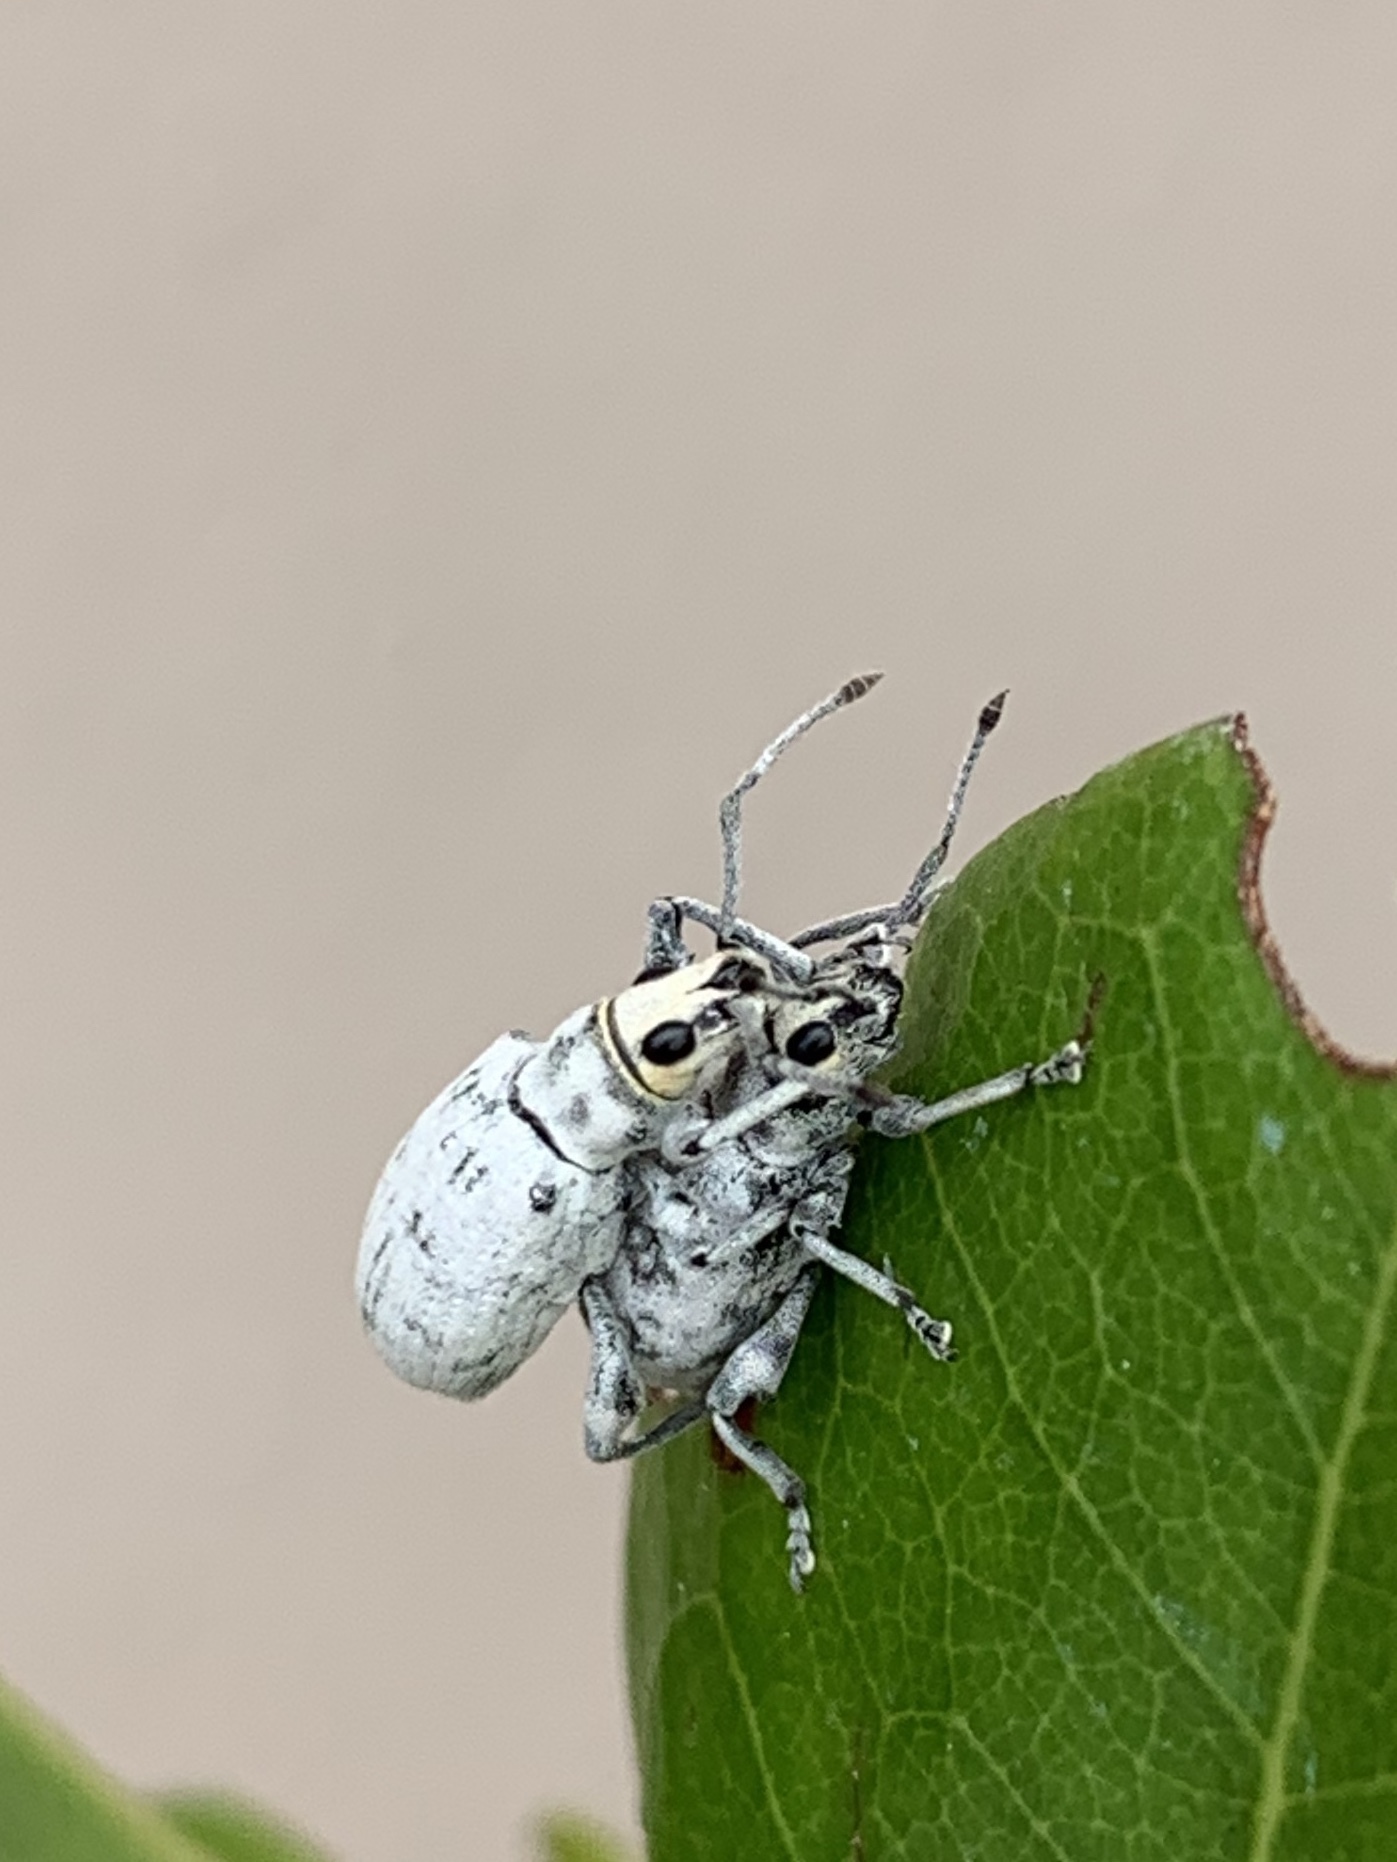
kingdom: Animalia
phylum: Arthropoda
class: Insecta
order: Coleoptera
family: Curculionidae
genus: Myllocerus
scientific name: Myllocerus undecimpustulatus
